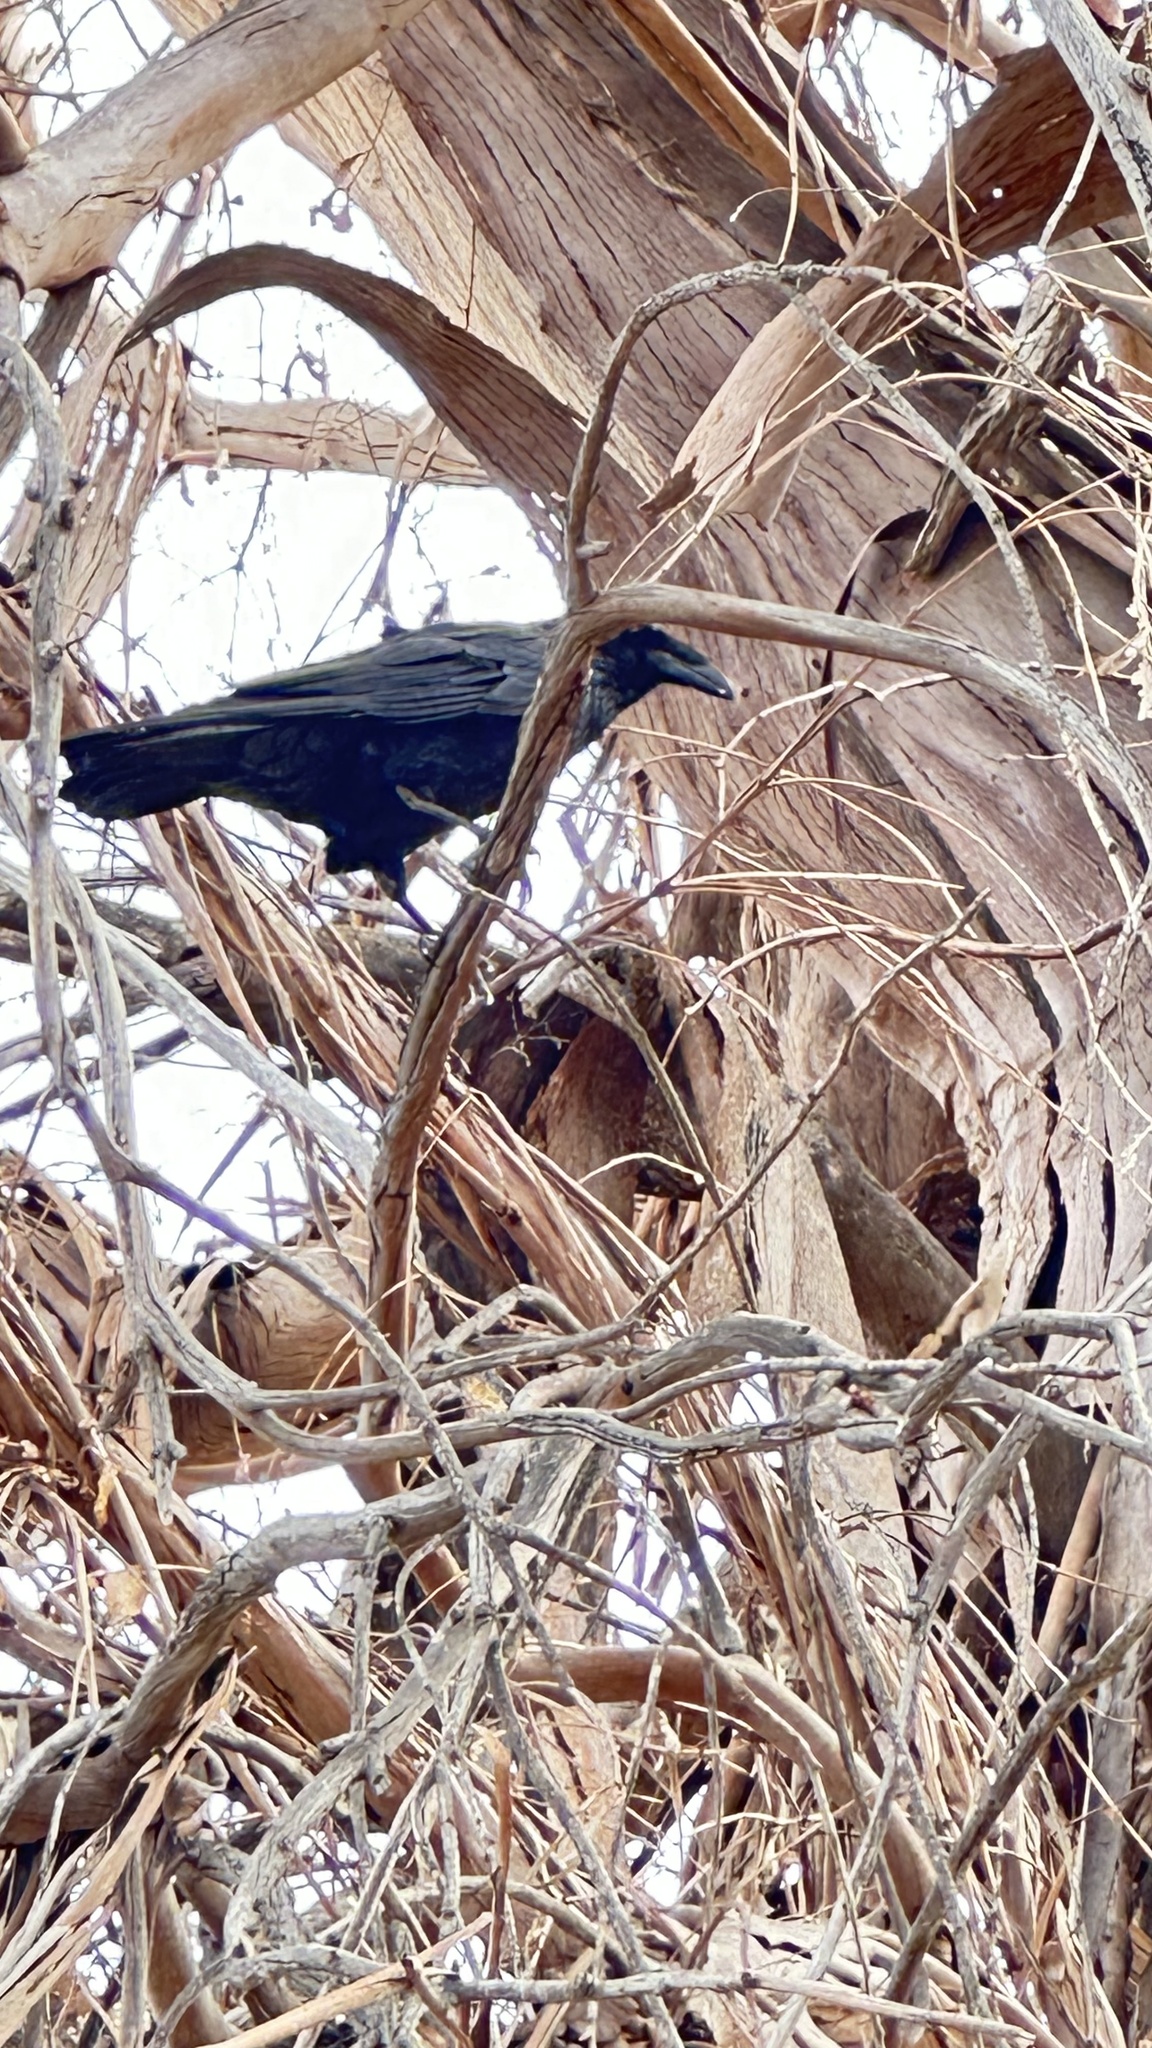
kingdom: Animalia
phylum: Chordata
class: Aves
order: Passeriformes
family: Corvidae
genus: Corvus
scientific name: Corvus corax
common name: Common raven
